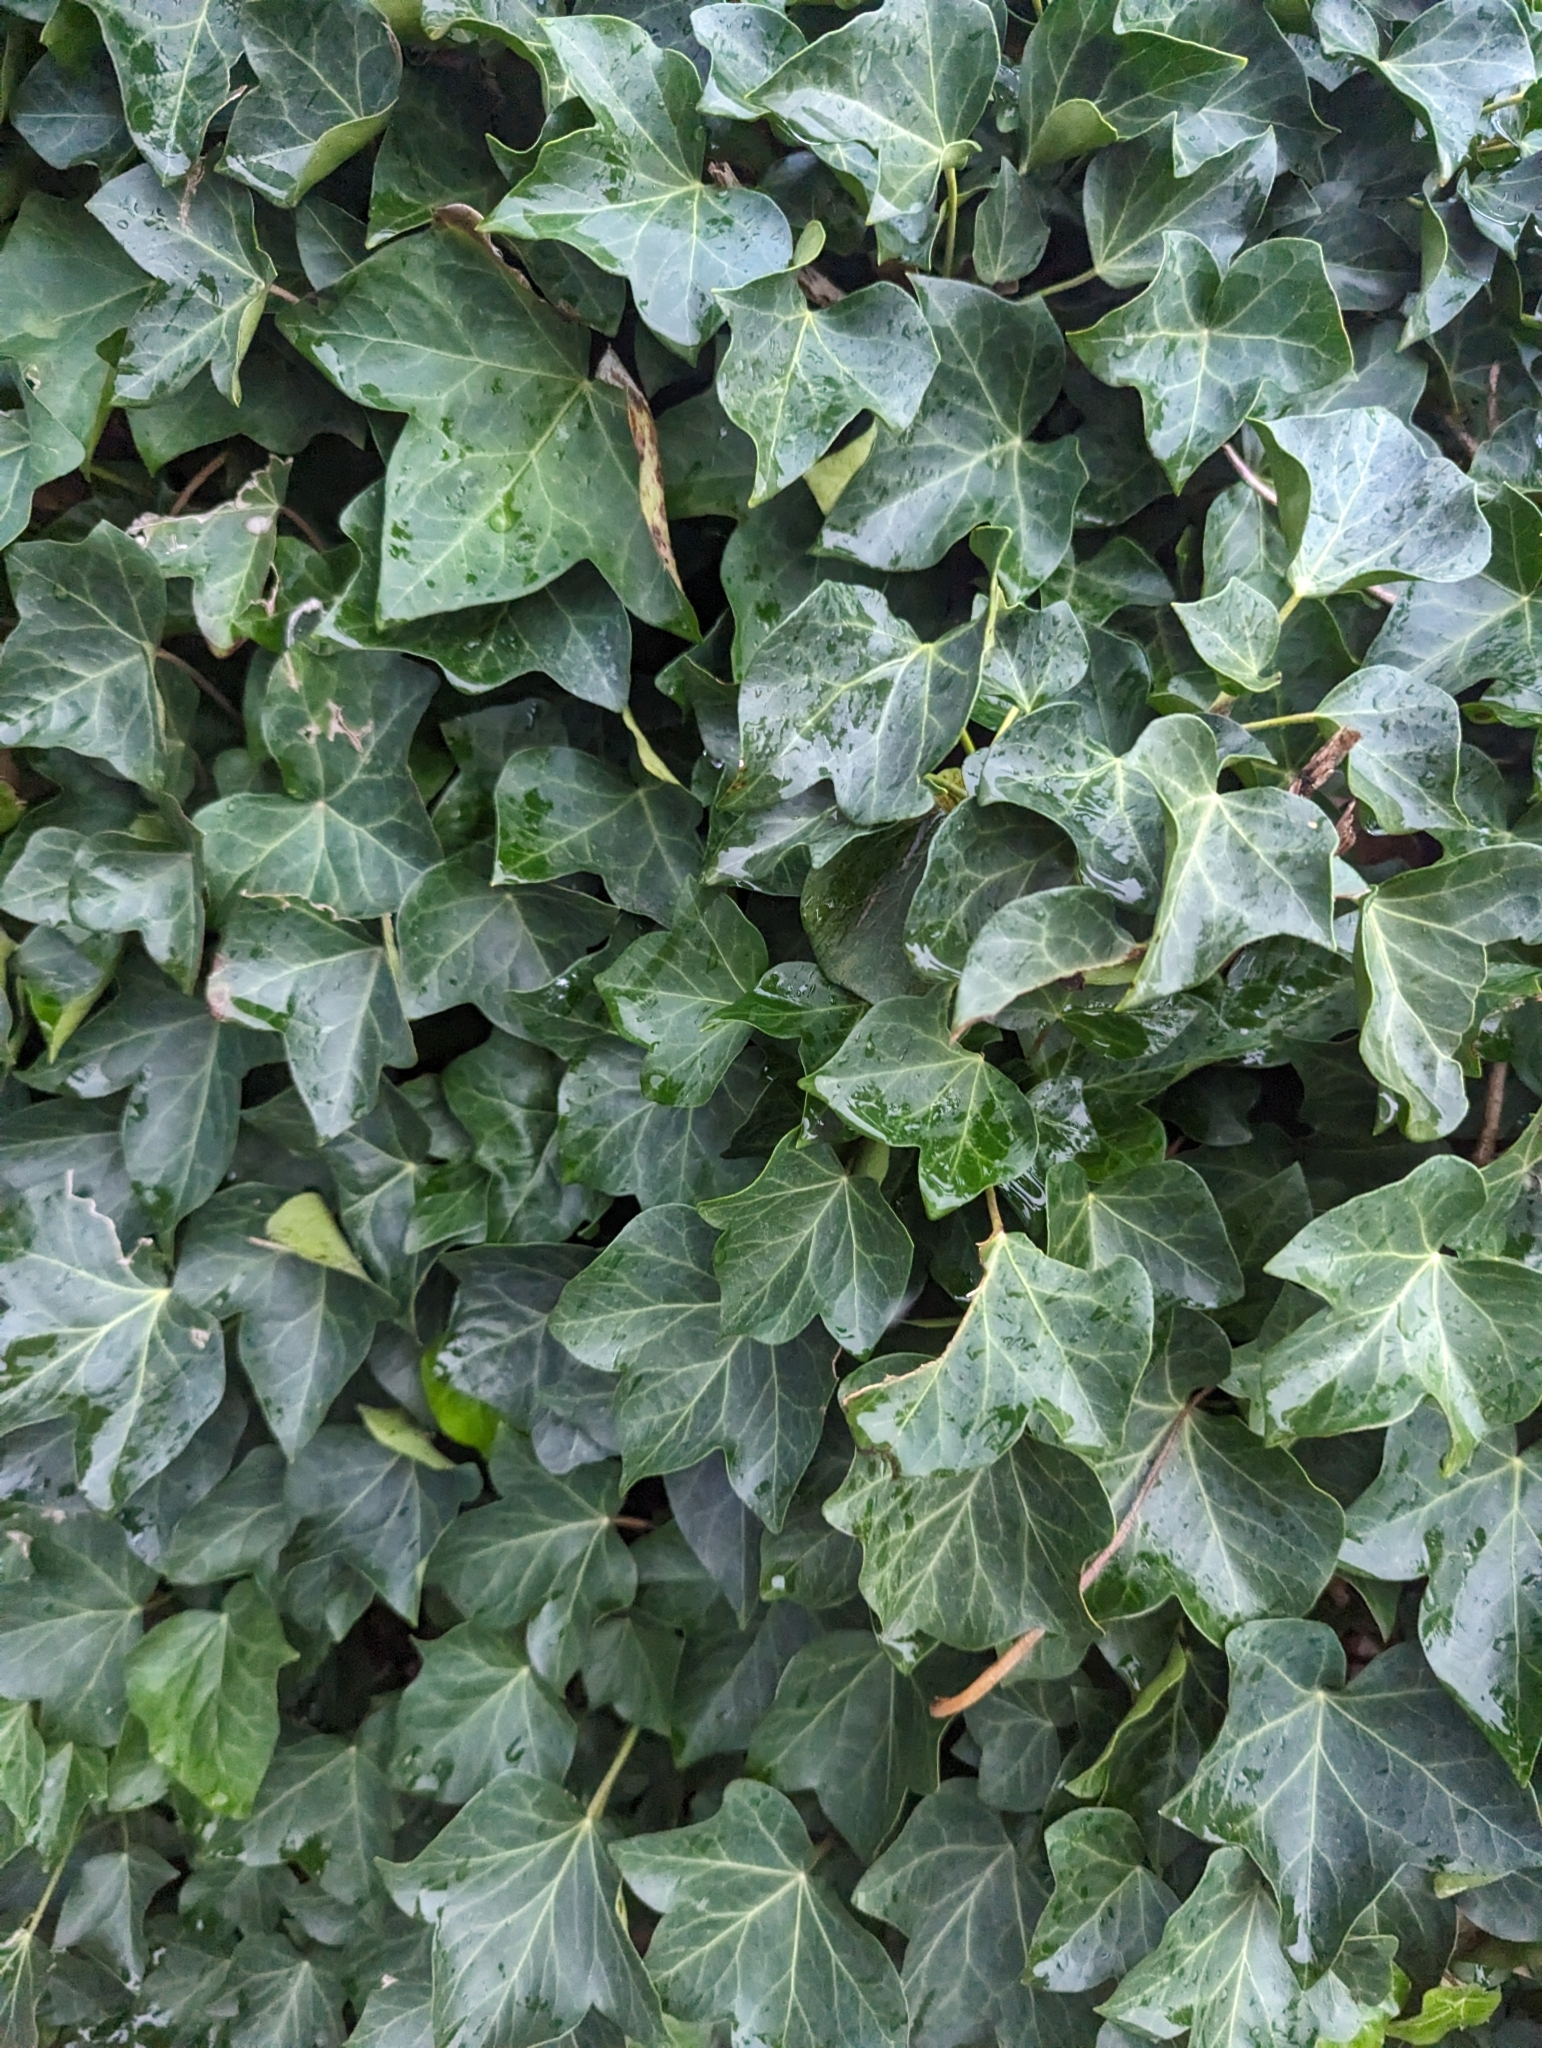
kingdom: Plantae
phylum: Tracheophyta
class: Magnoliopsida
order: Apiales
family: Araliaceae
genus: Hedera
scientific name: Hedera helix
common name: Ivy
